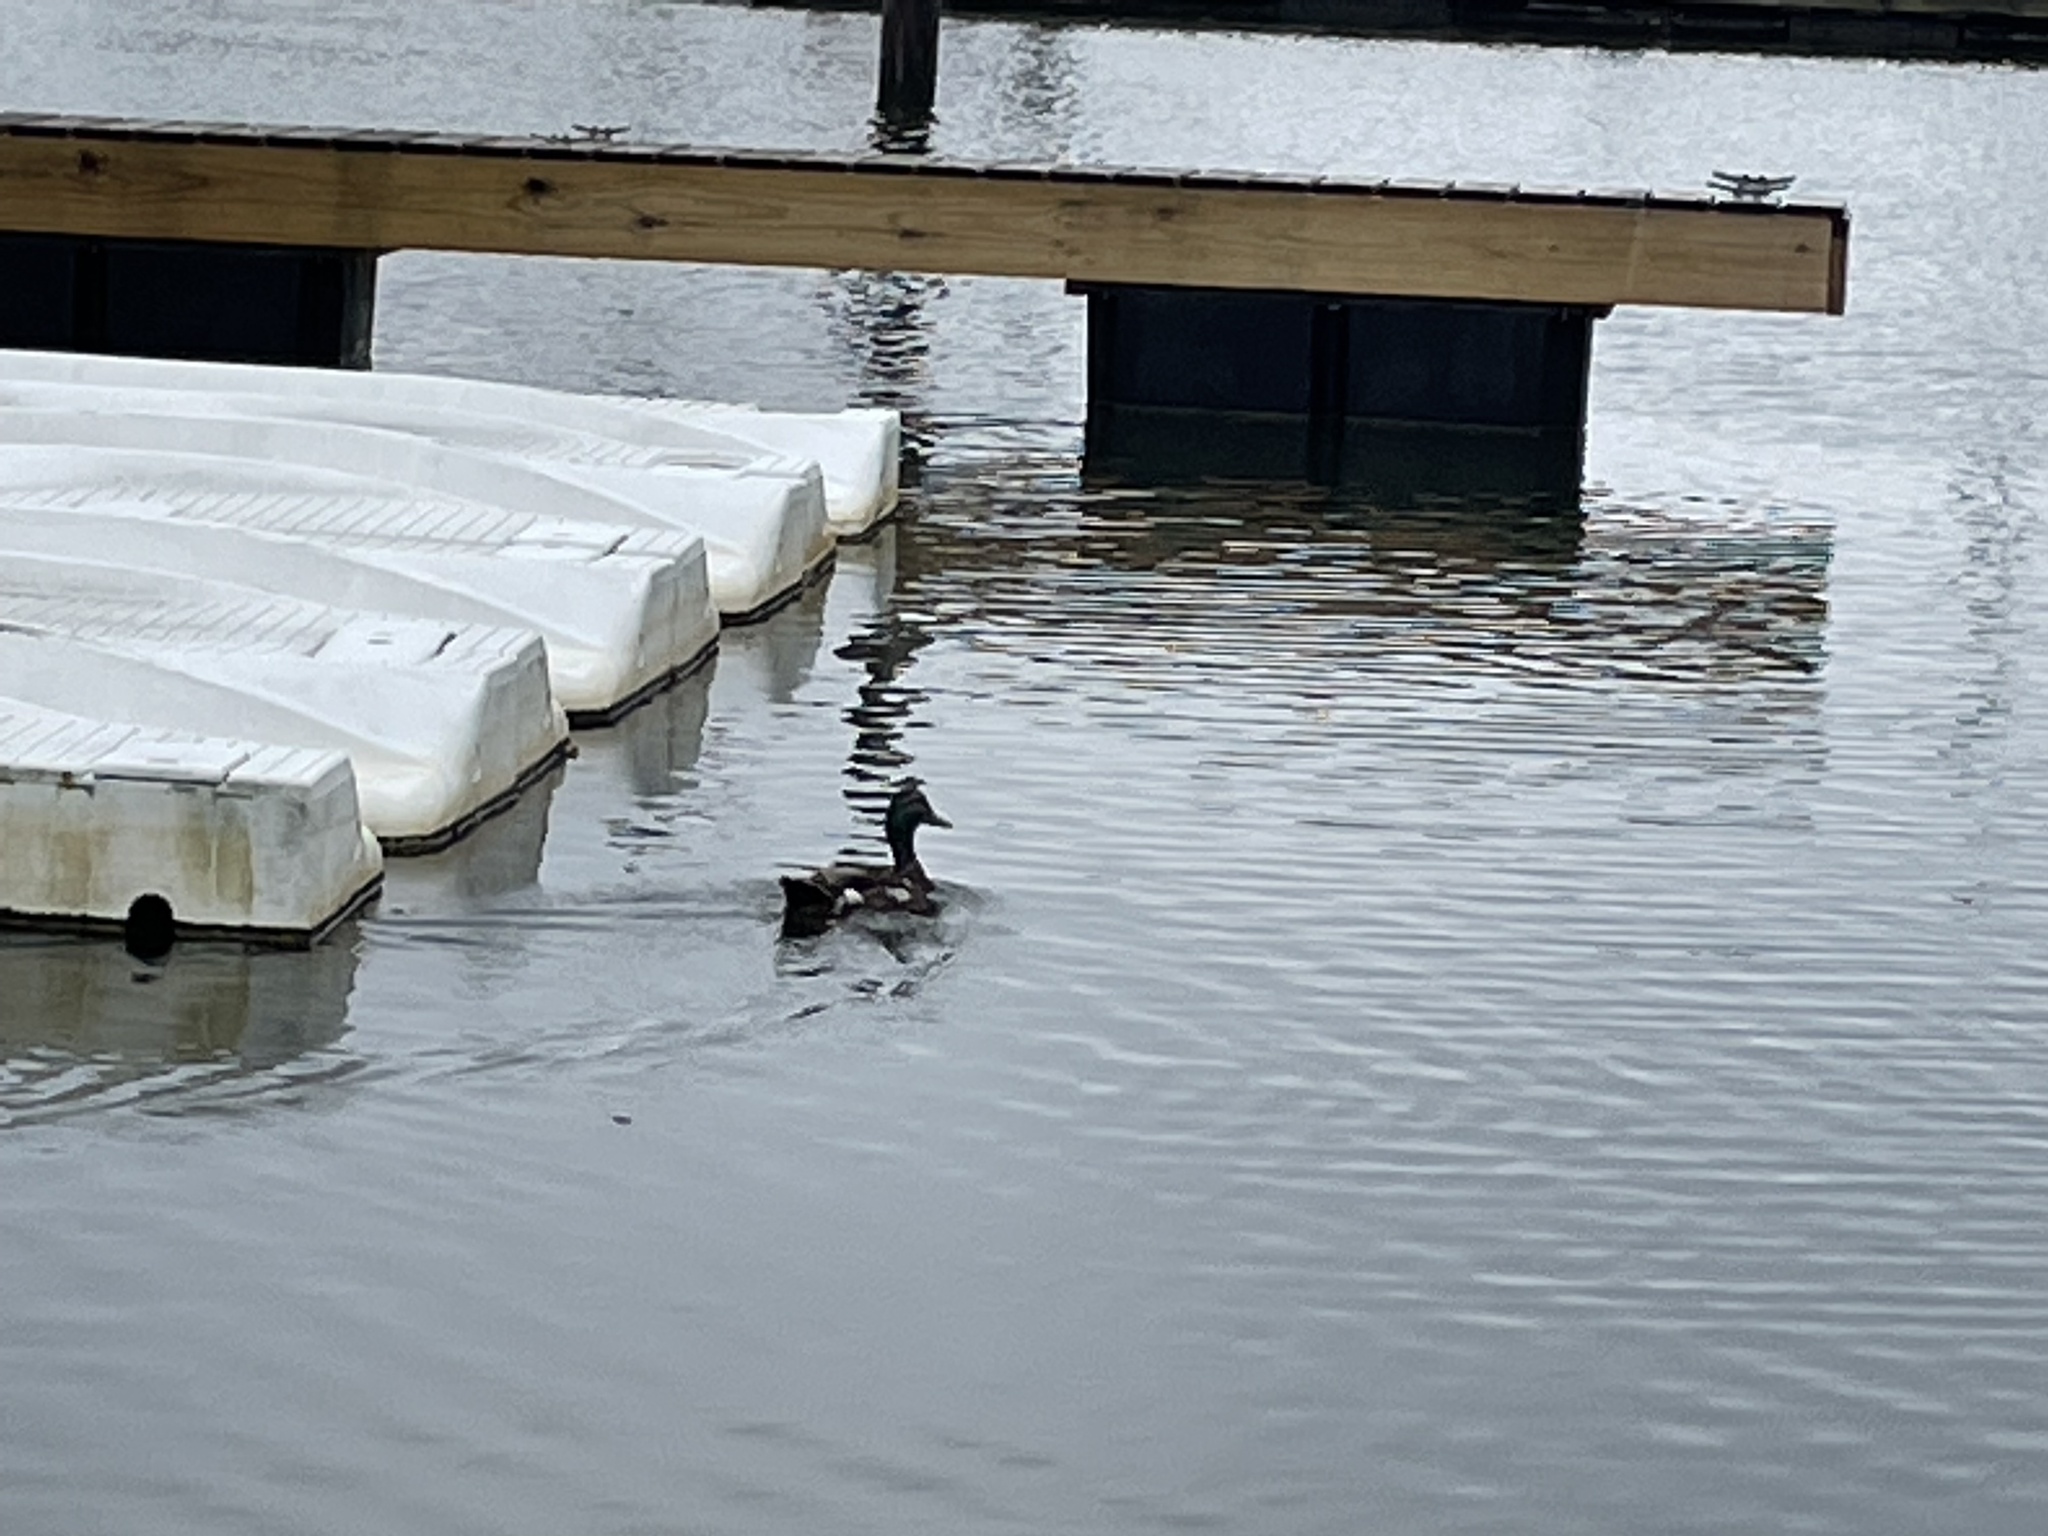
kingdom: Animalia
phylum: Chordata
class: Aves
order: Anseriformes
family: Anatidae
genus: Anas
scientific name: Anas platyrhynchos
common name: Mallard
